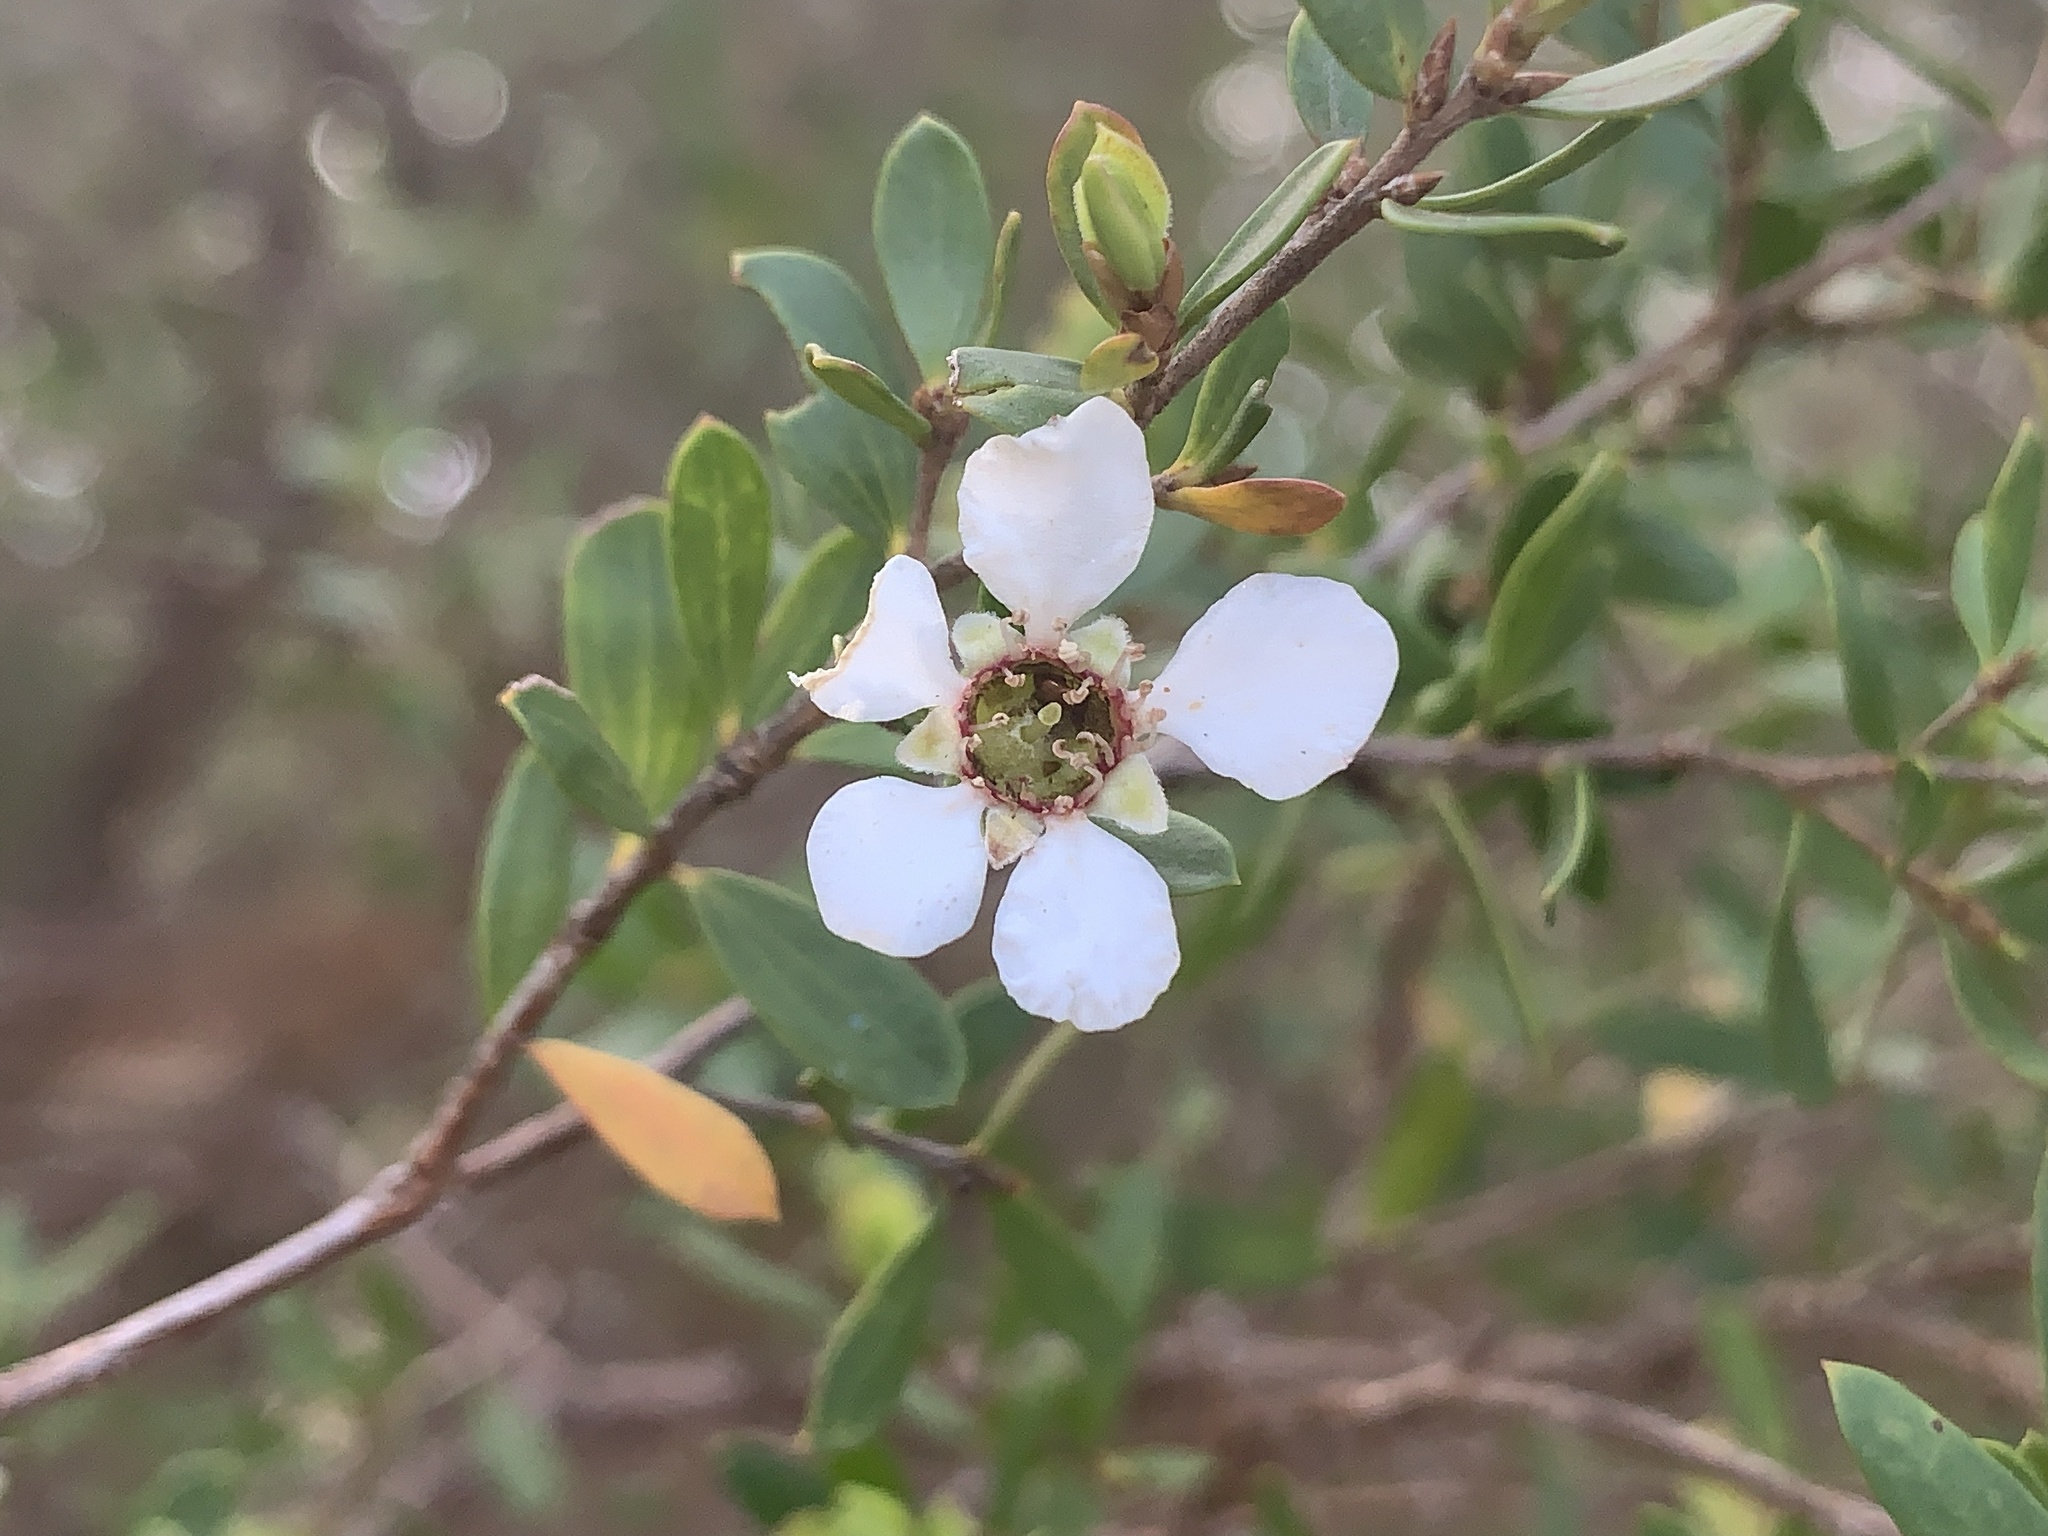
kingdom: Plantae
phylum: Tracheophyta
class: Magnoliopsida
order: Myrtales
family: Myrtaceae
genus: Leptospermum
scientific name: Leptospermum laevigatum
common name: Australian teatree
